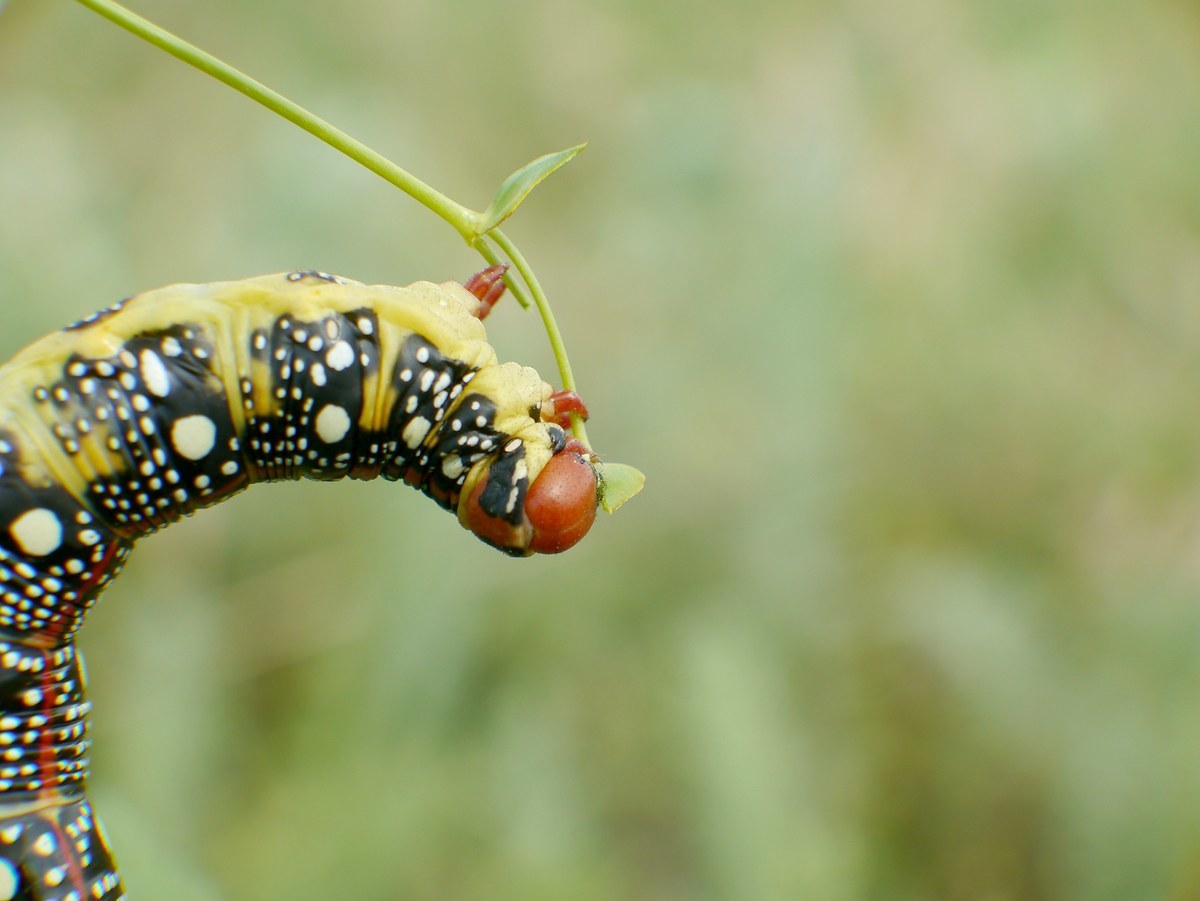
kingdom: Animalia
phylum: Arthropoda
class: Insecta
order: Lepidoptera
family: Sphingidae
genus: Hyles
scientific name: Hyles euphorbiae
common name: Spurge hawk-moth
